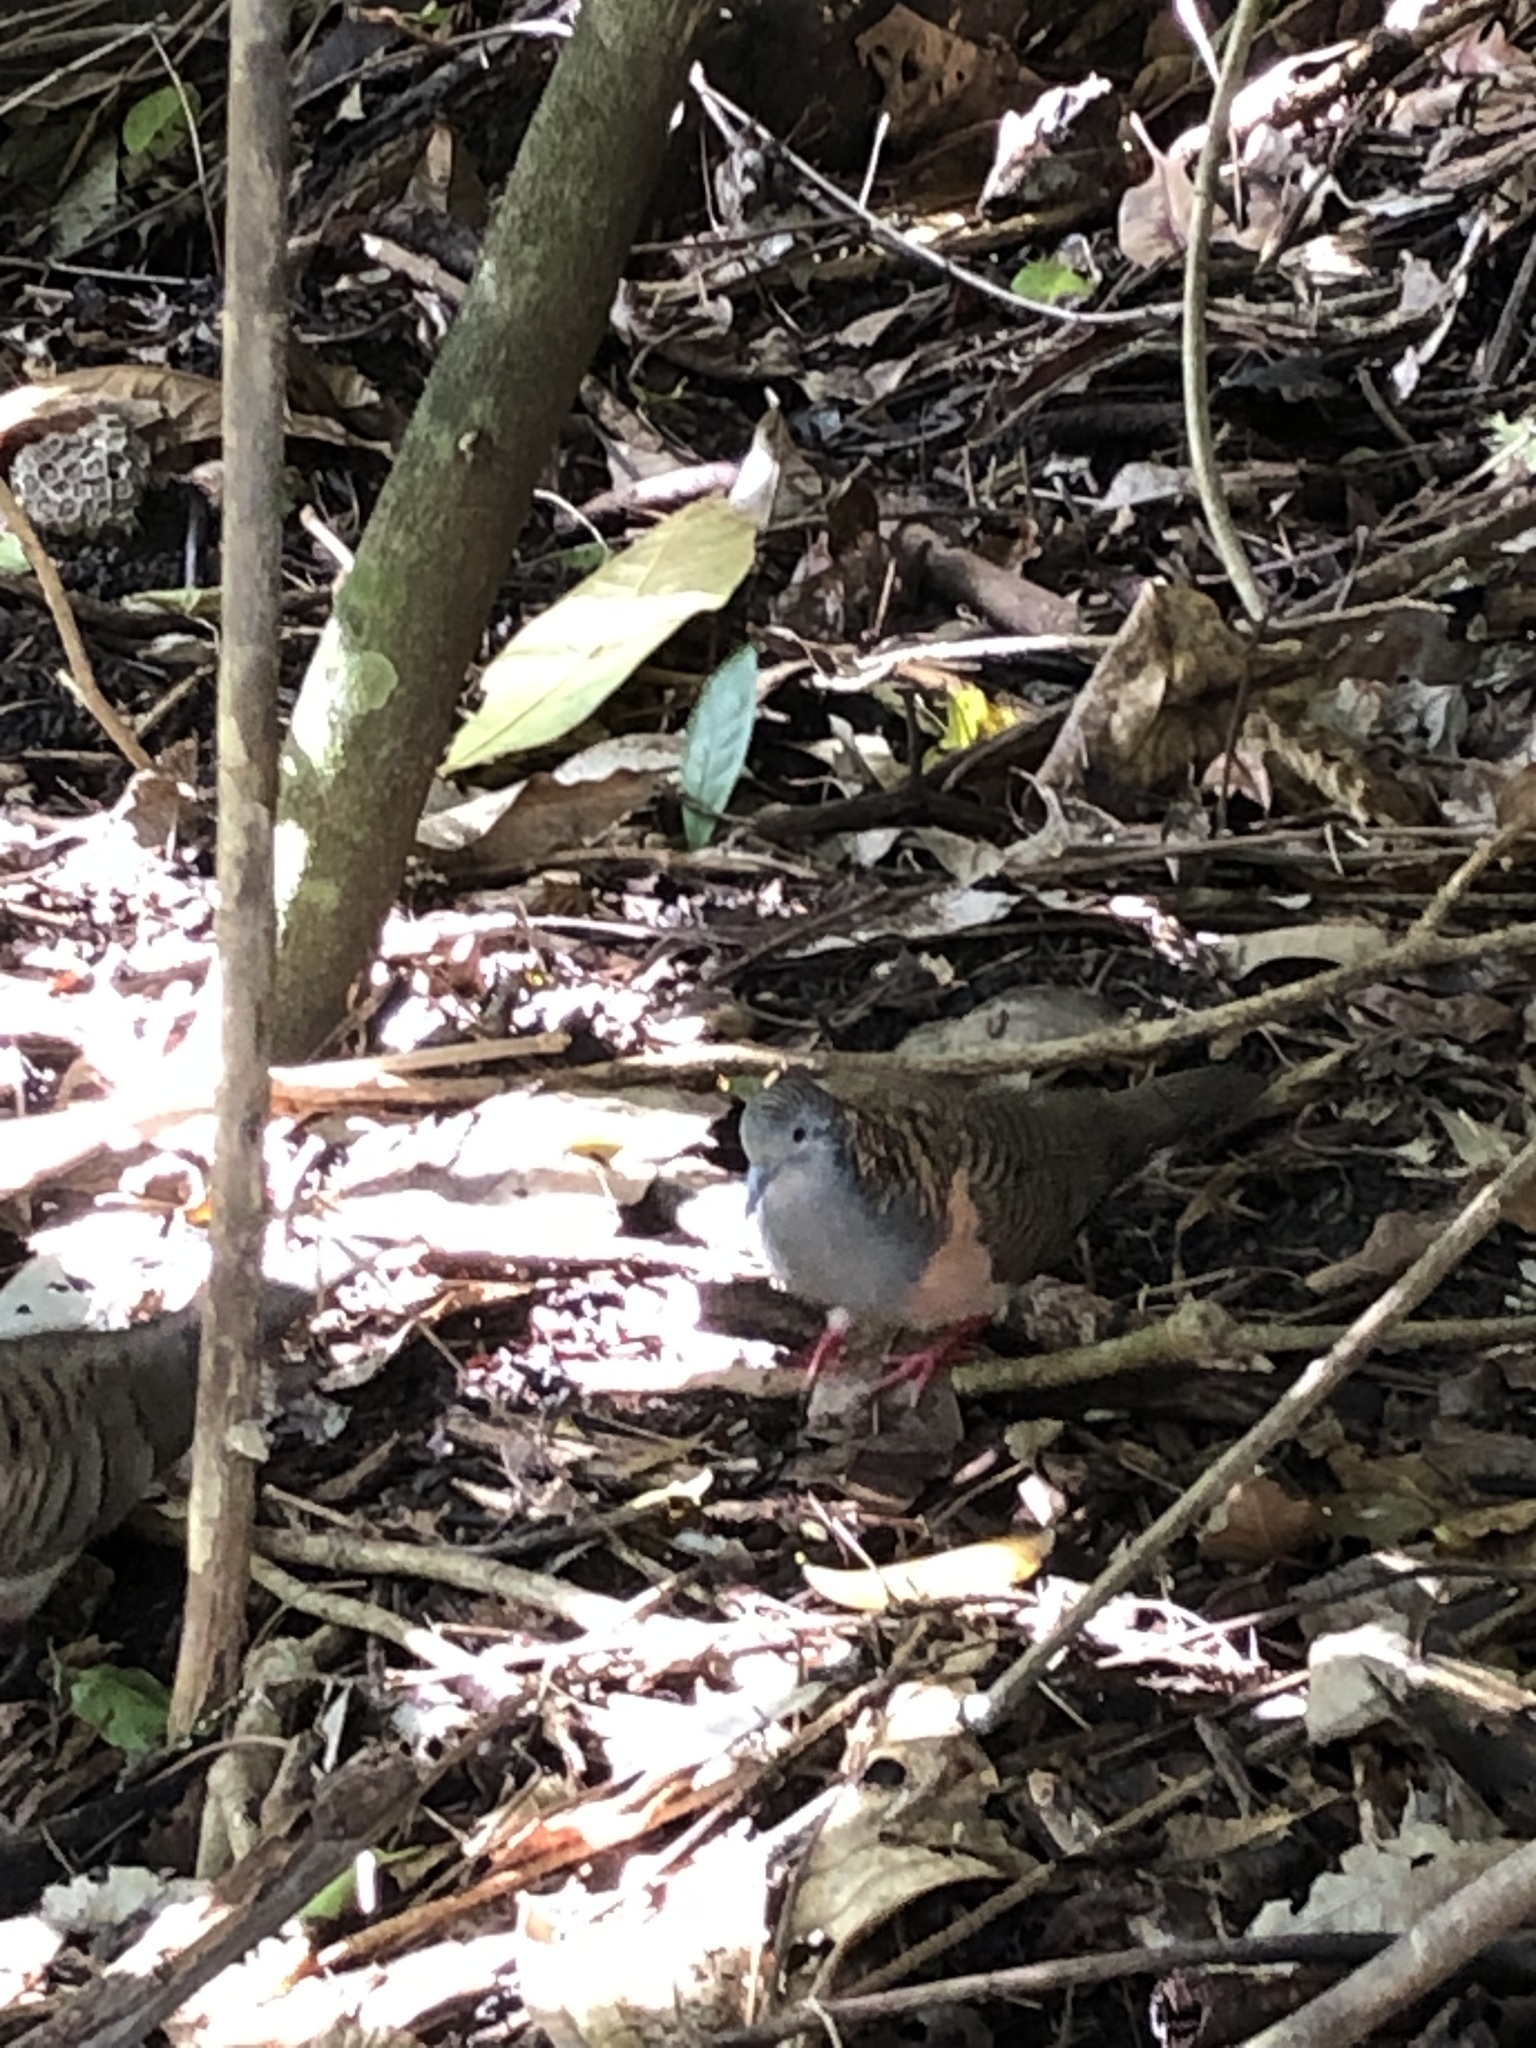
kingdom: Animalia
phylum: Chordata
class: Aves
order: Columbiformes
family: Columbidae
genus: Geopelia
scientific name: Geopelia humeralis
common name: Bar-shouldered dove
